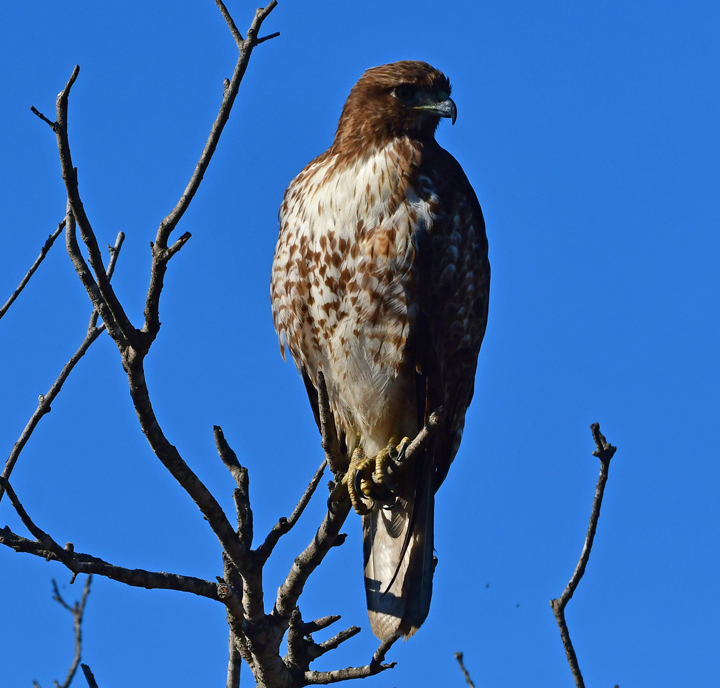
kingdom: Animalia
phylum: Chordata
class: Aves
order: Accipitriformes
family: Accipitridae
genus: Buteo
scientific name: Buteo jamaicensis
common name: Red-tailed hawk
